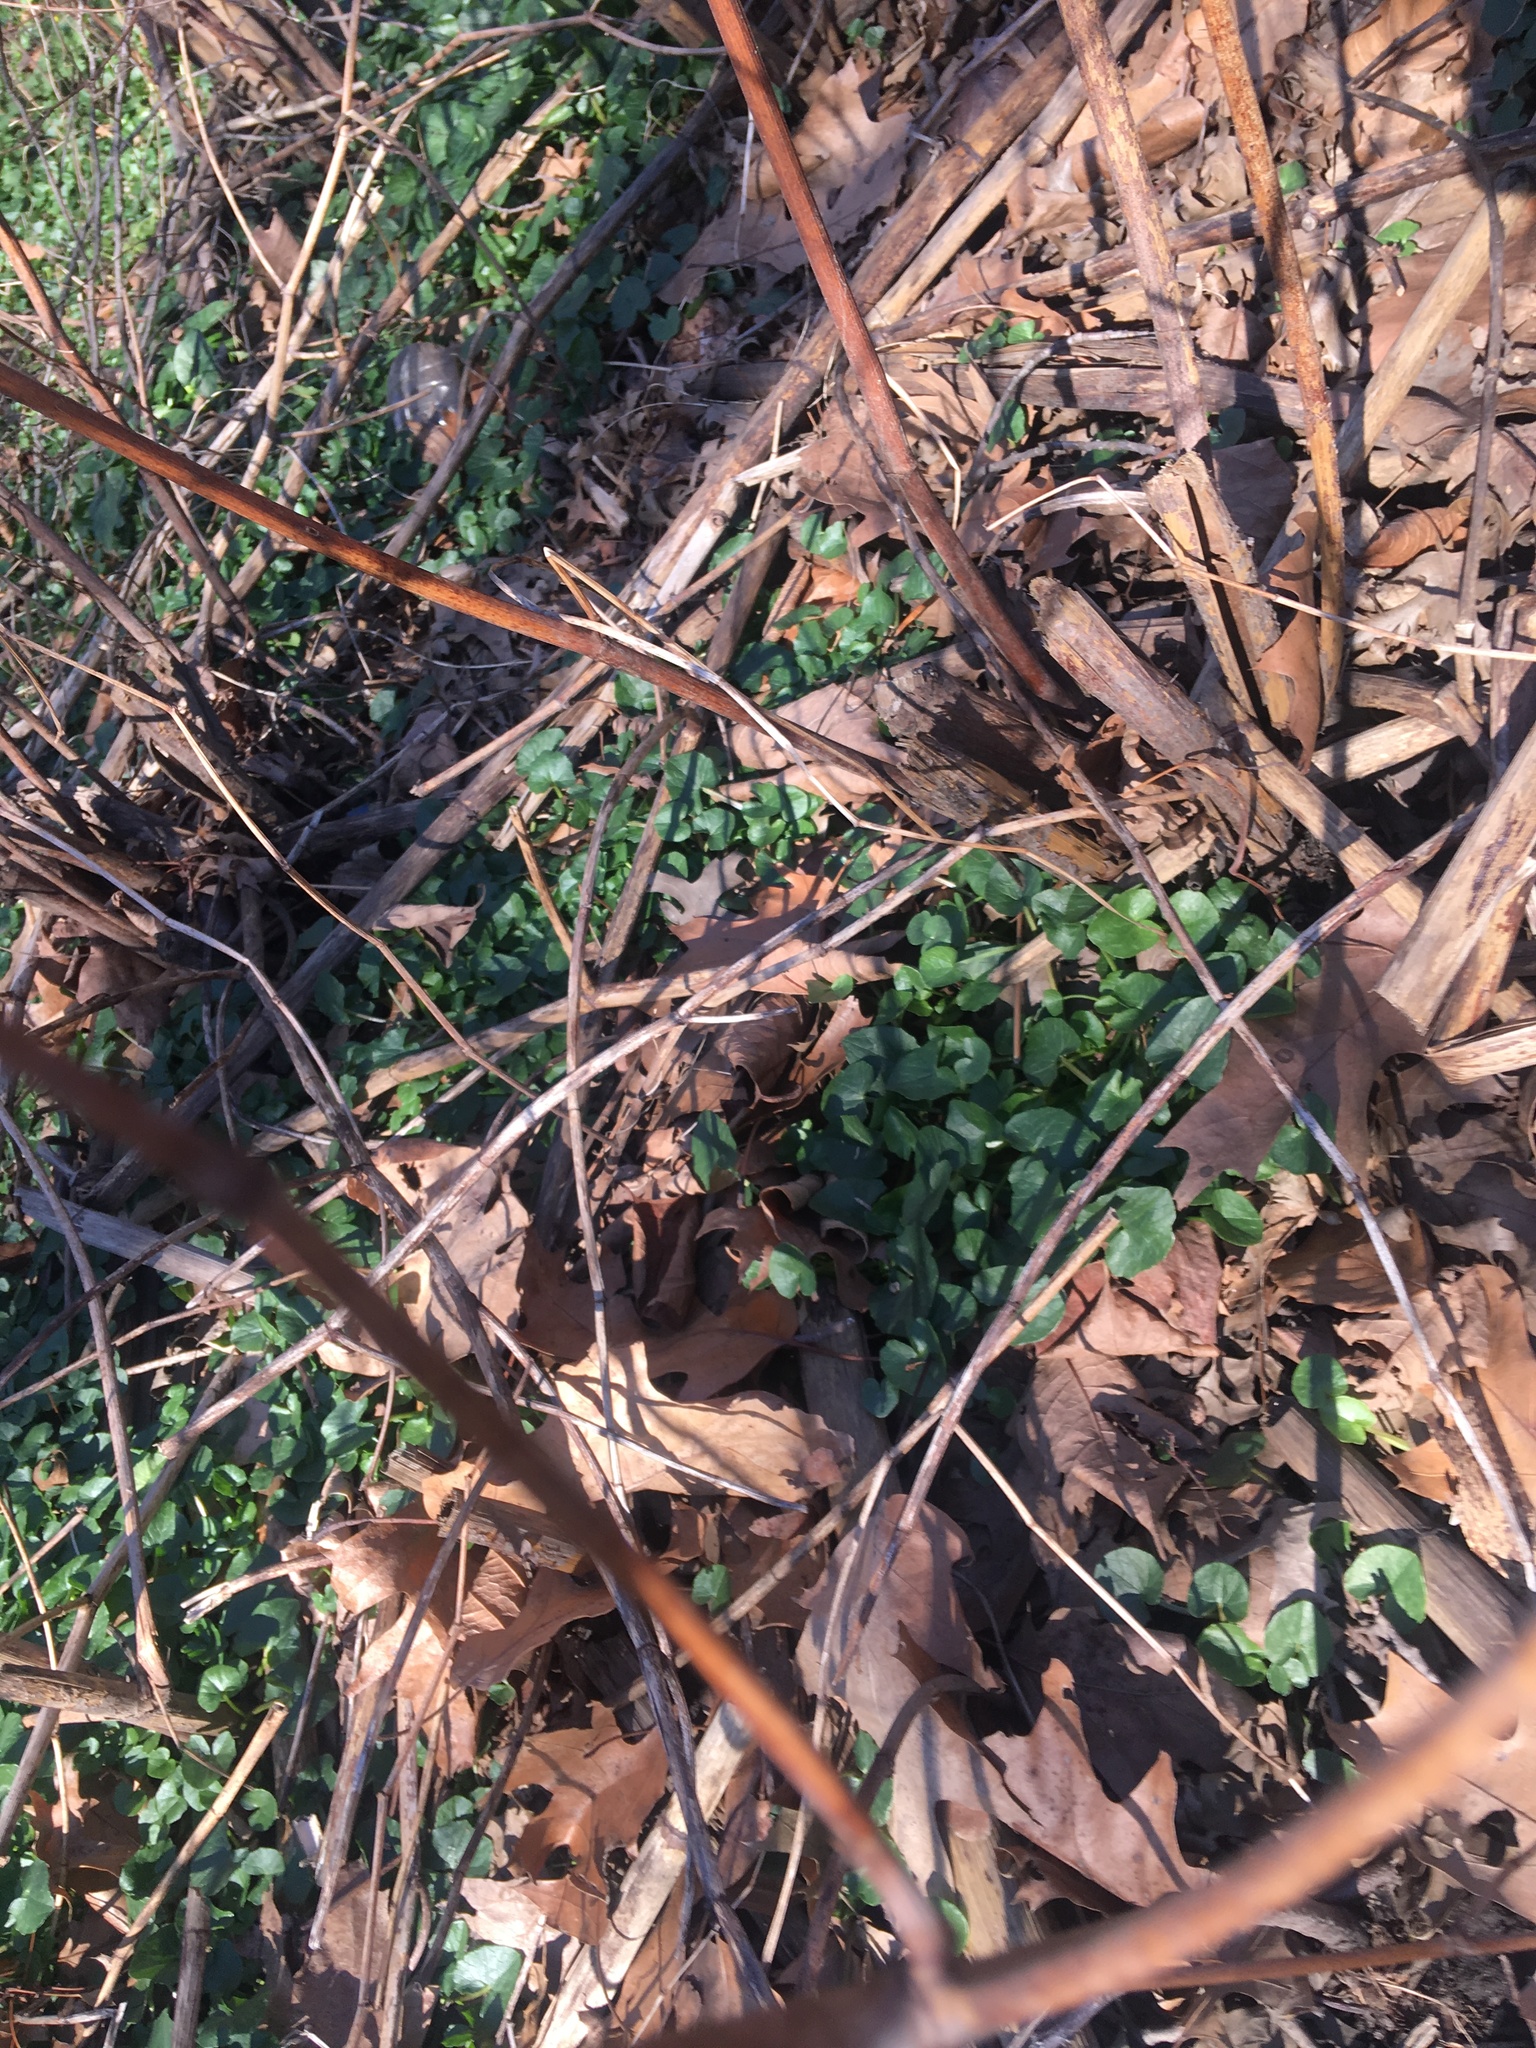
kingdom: Plantae
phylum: Tracheophyta
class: Magnoliopsida
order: Ranunculales
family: Ranunculaceae
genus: Ficaria
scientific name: Ficaria verna
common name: Lesser celandine
